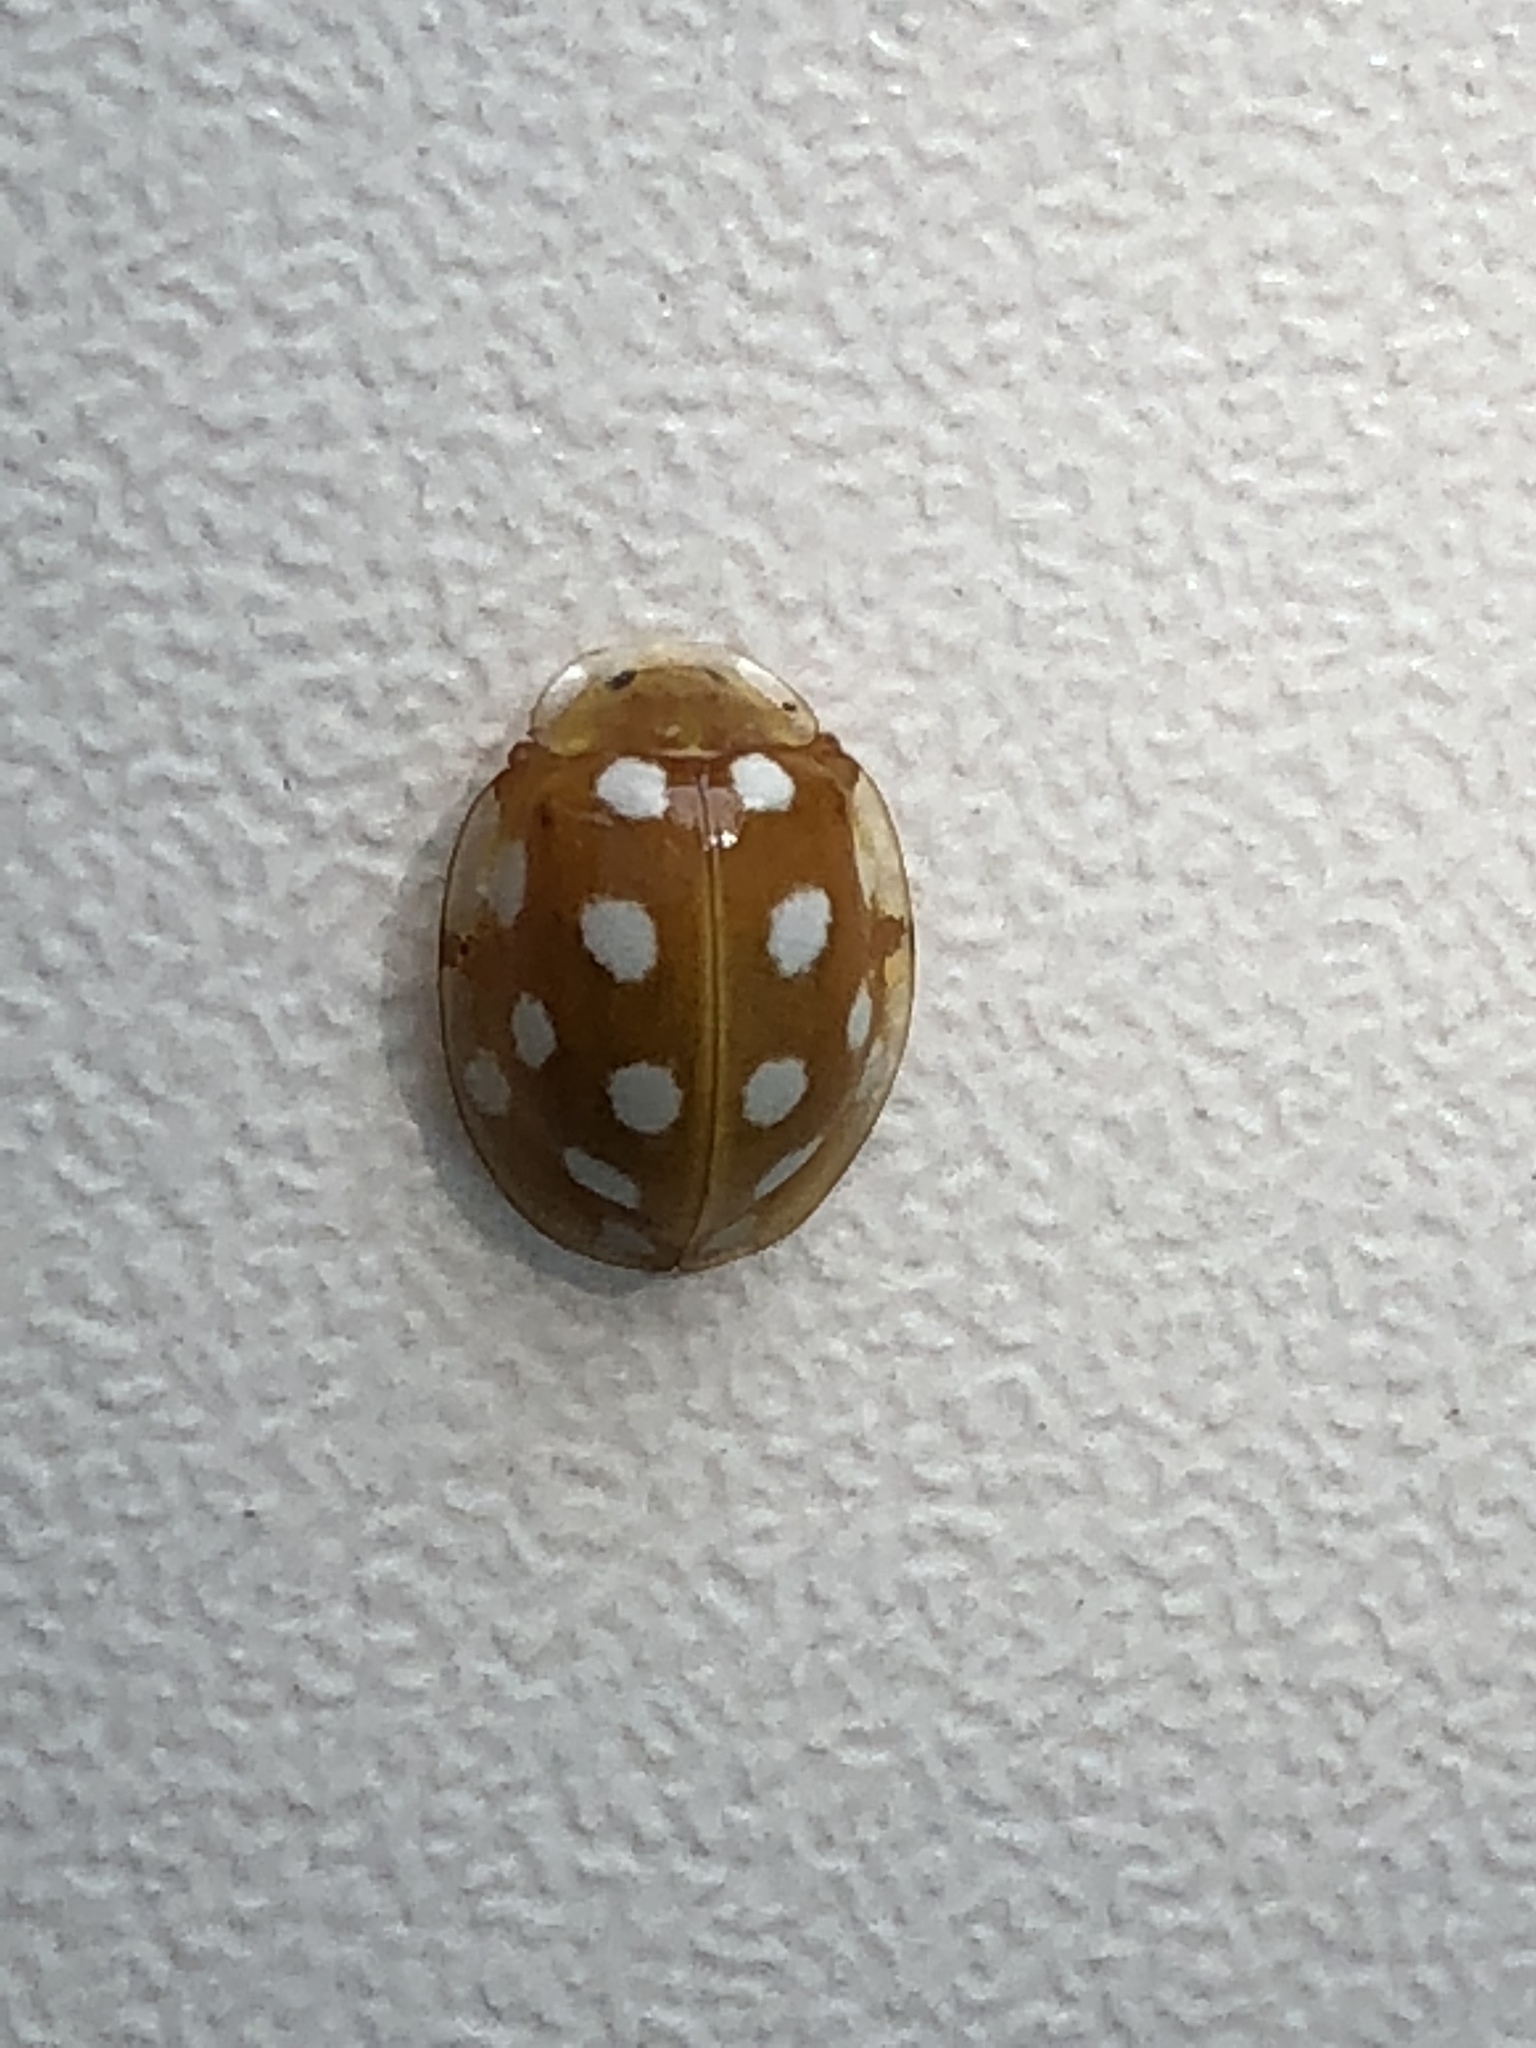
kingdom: Animalia
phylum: Arthropoda
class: Insecta
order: Coleoptera
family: Coccinellidae
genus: Halyzia
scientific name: Halyzia sedecimguttata
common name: Orange ladybird
